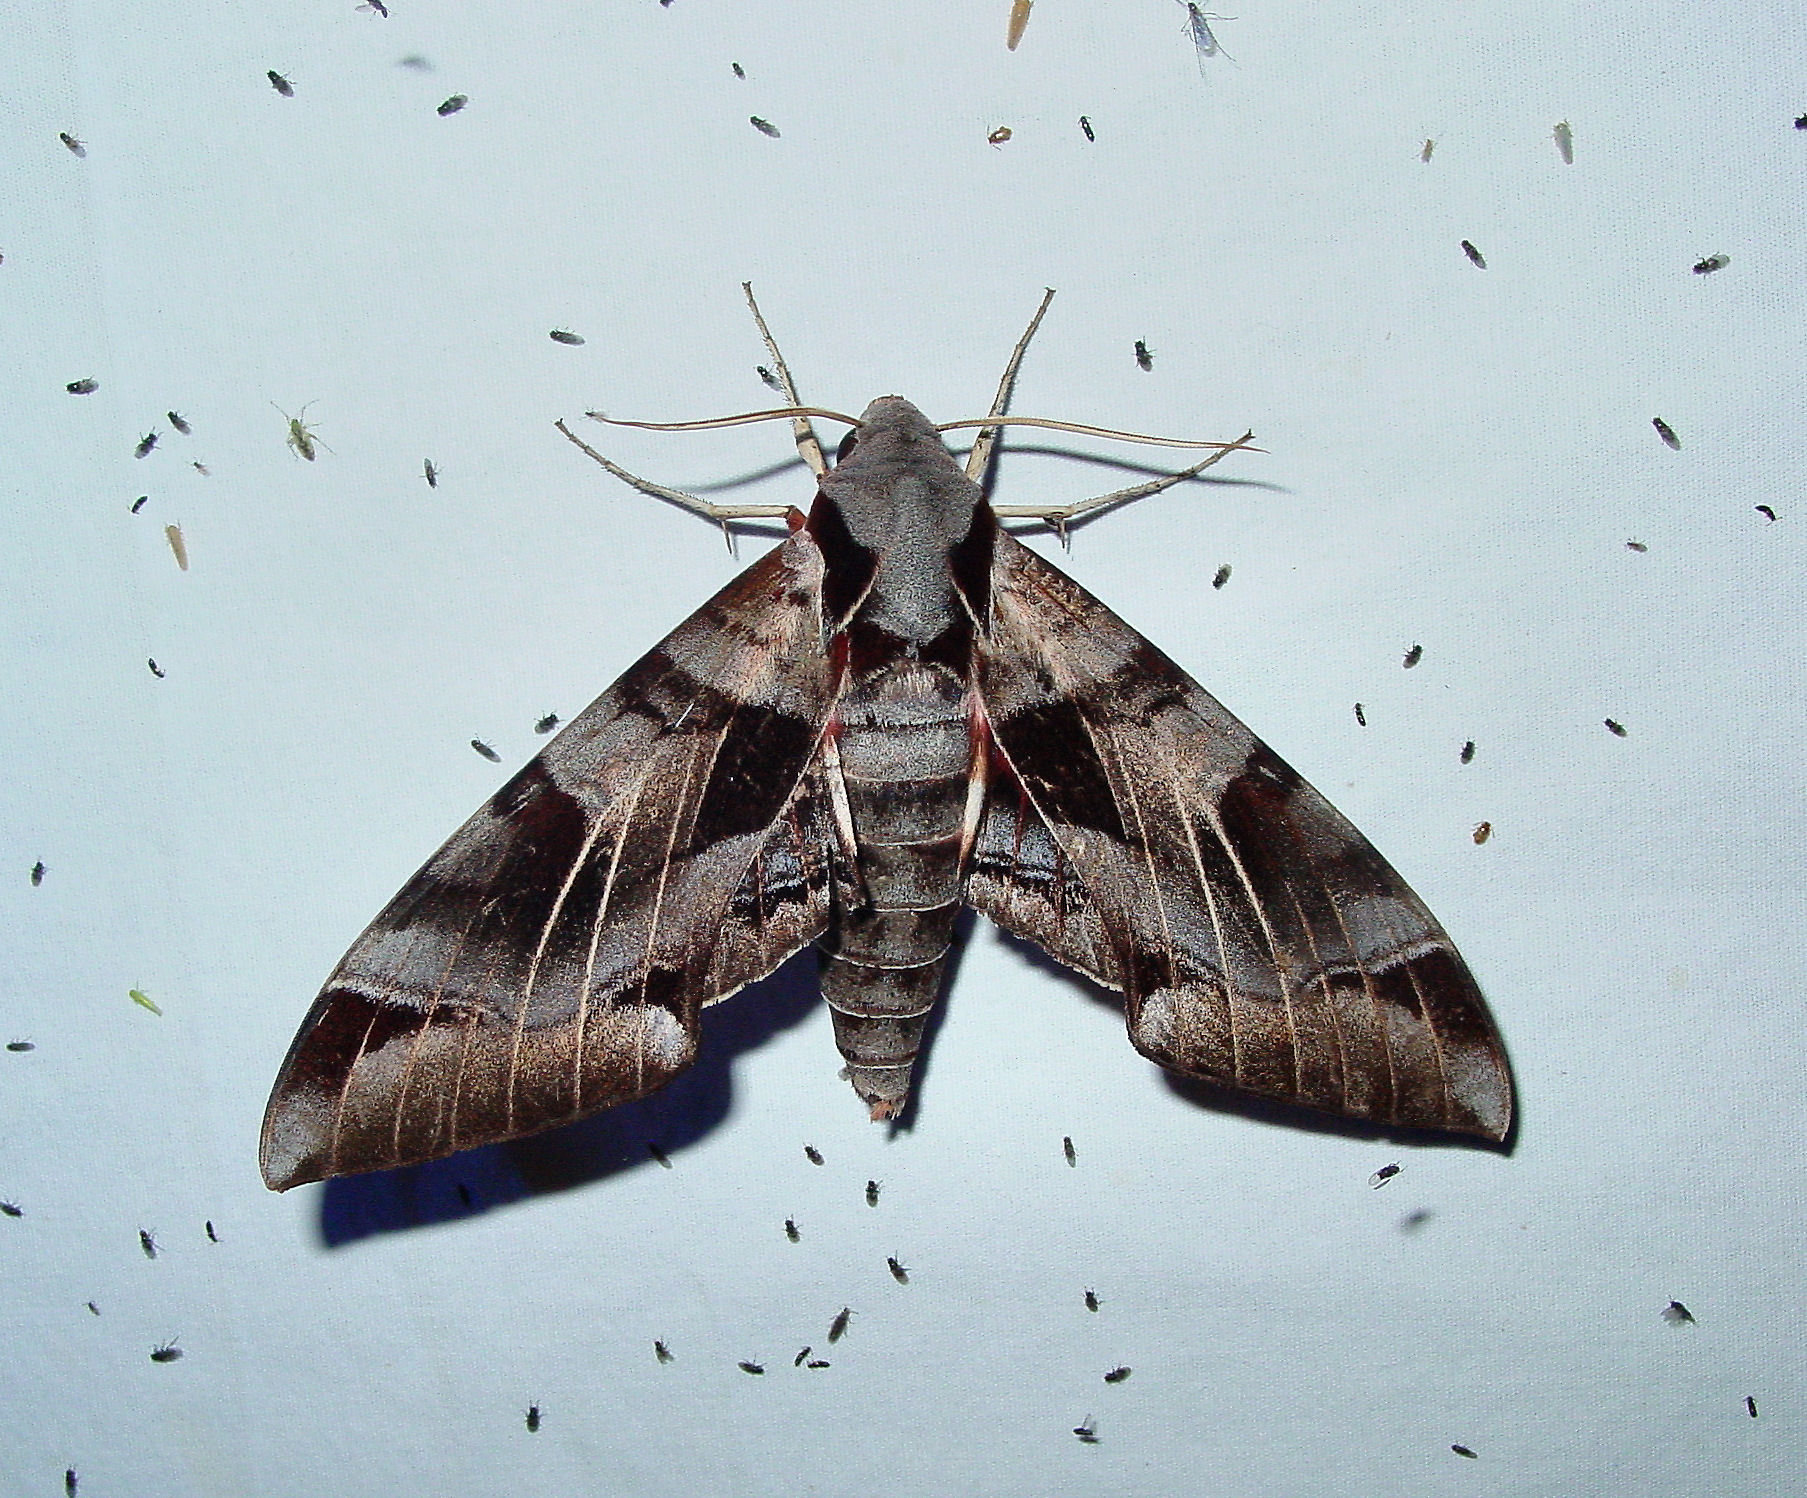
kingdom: Animalia
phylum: Arthropoda
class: Insecta
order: Lepidoptera
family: Sphingidae
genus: Eumorpha
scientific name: Eumorpha typhon
